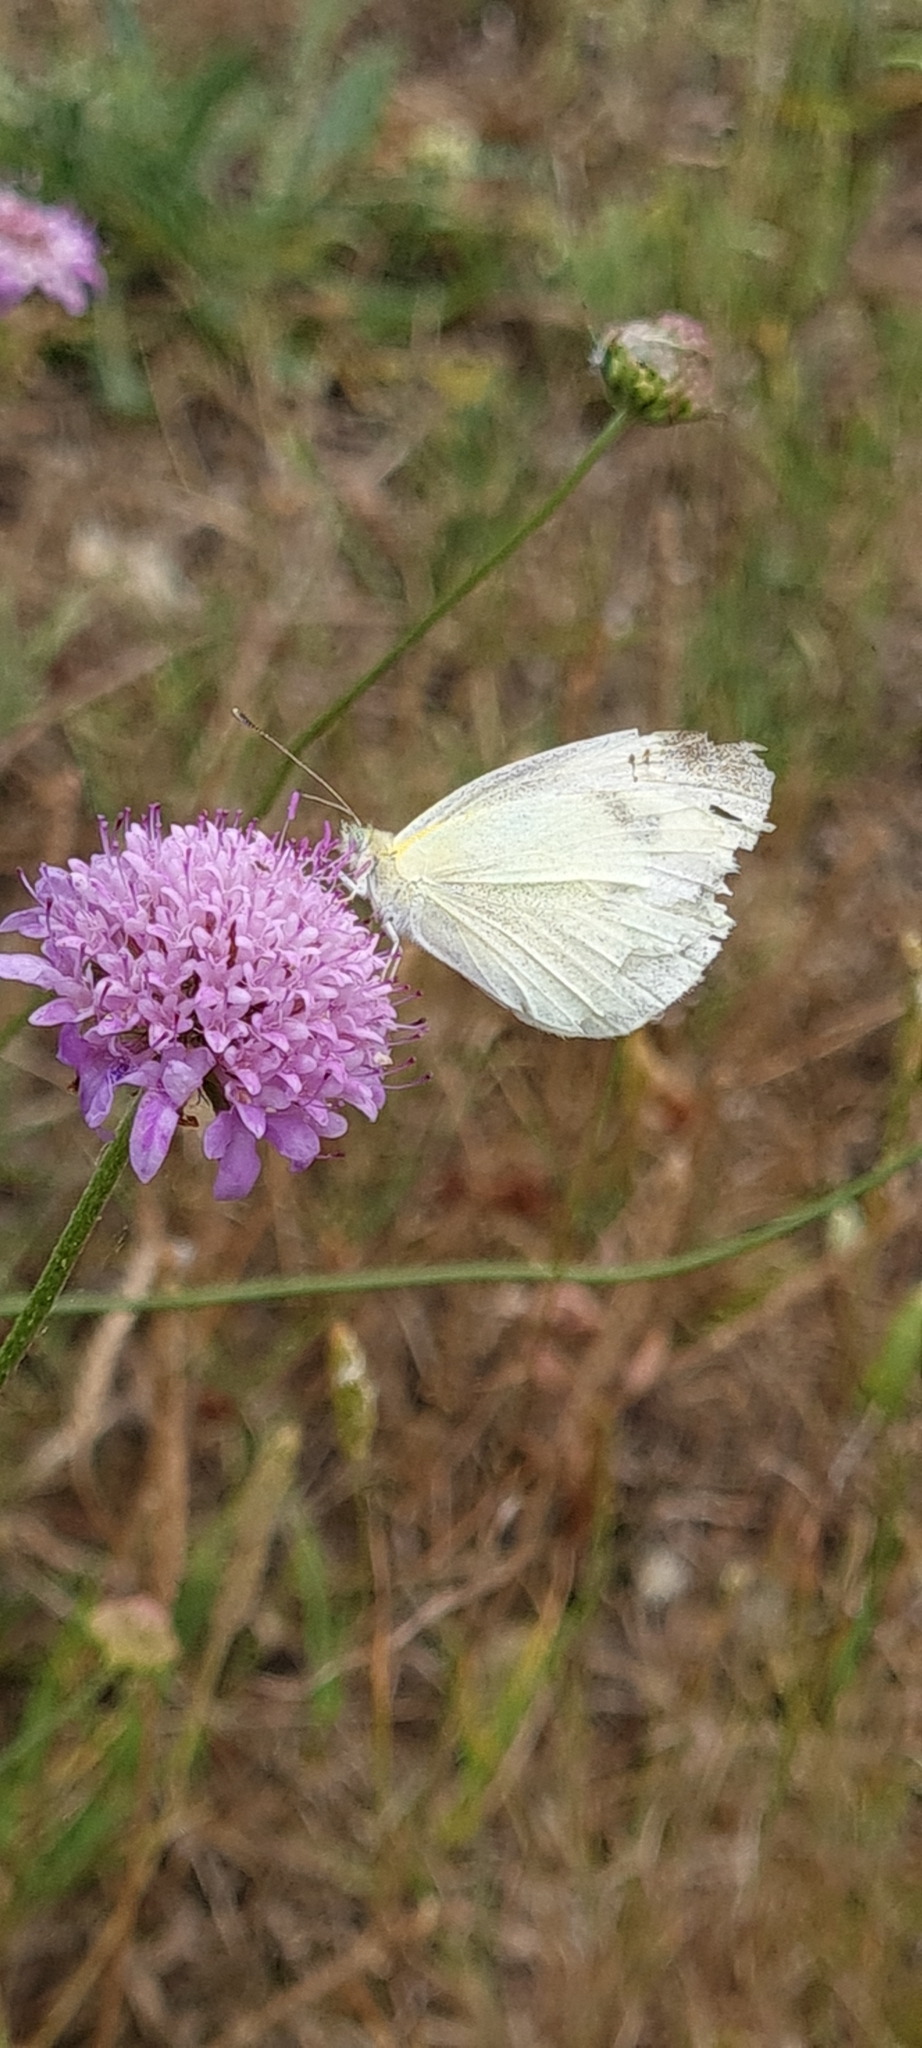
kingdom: Animalia
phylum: Arthropoda
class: Insecta
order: Lepidoptera
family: Pieridae
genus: Pieris
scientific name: Pieris rapae
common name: Small white
